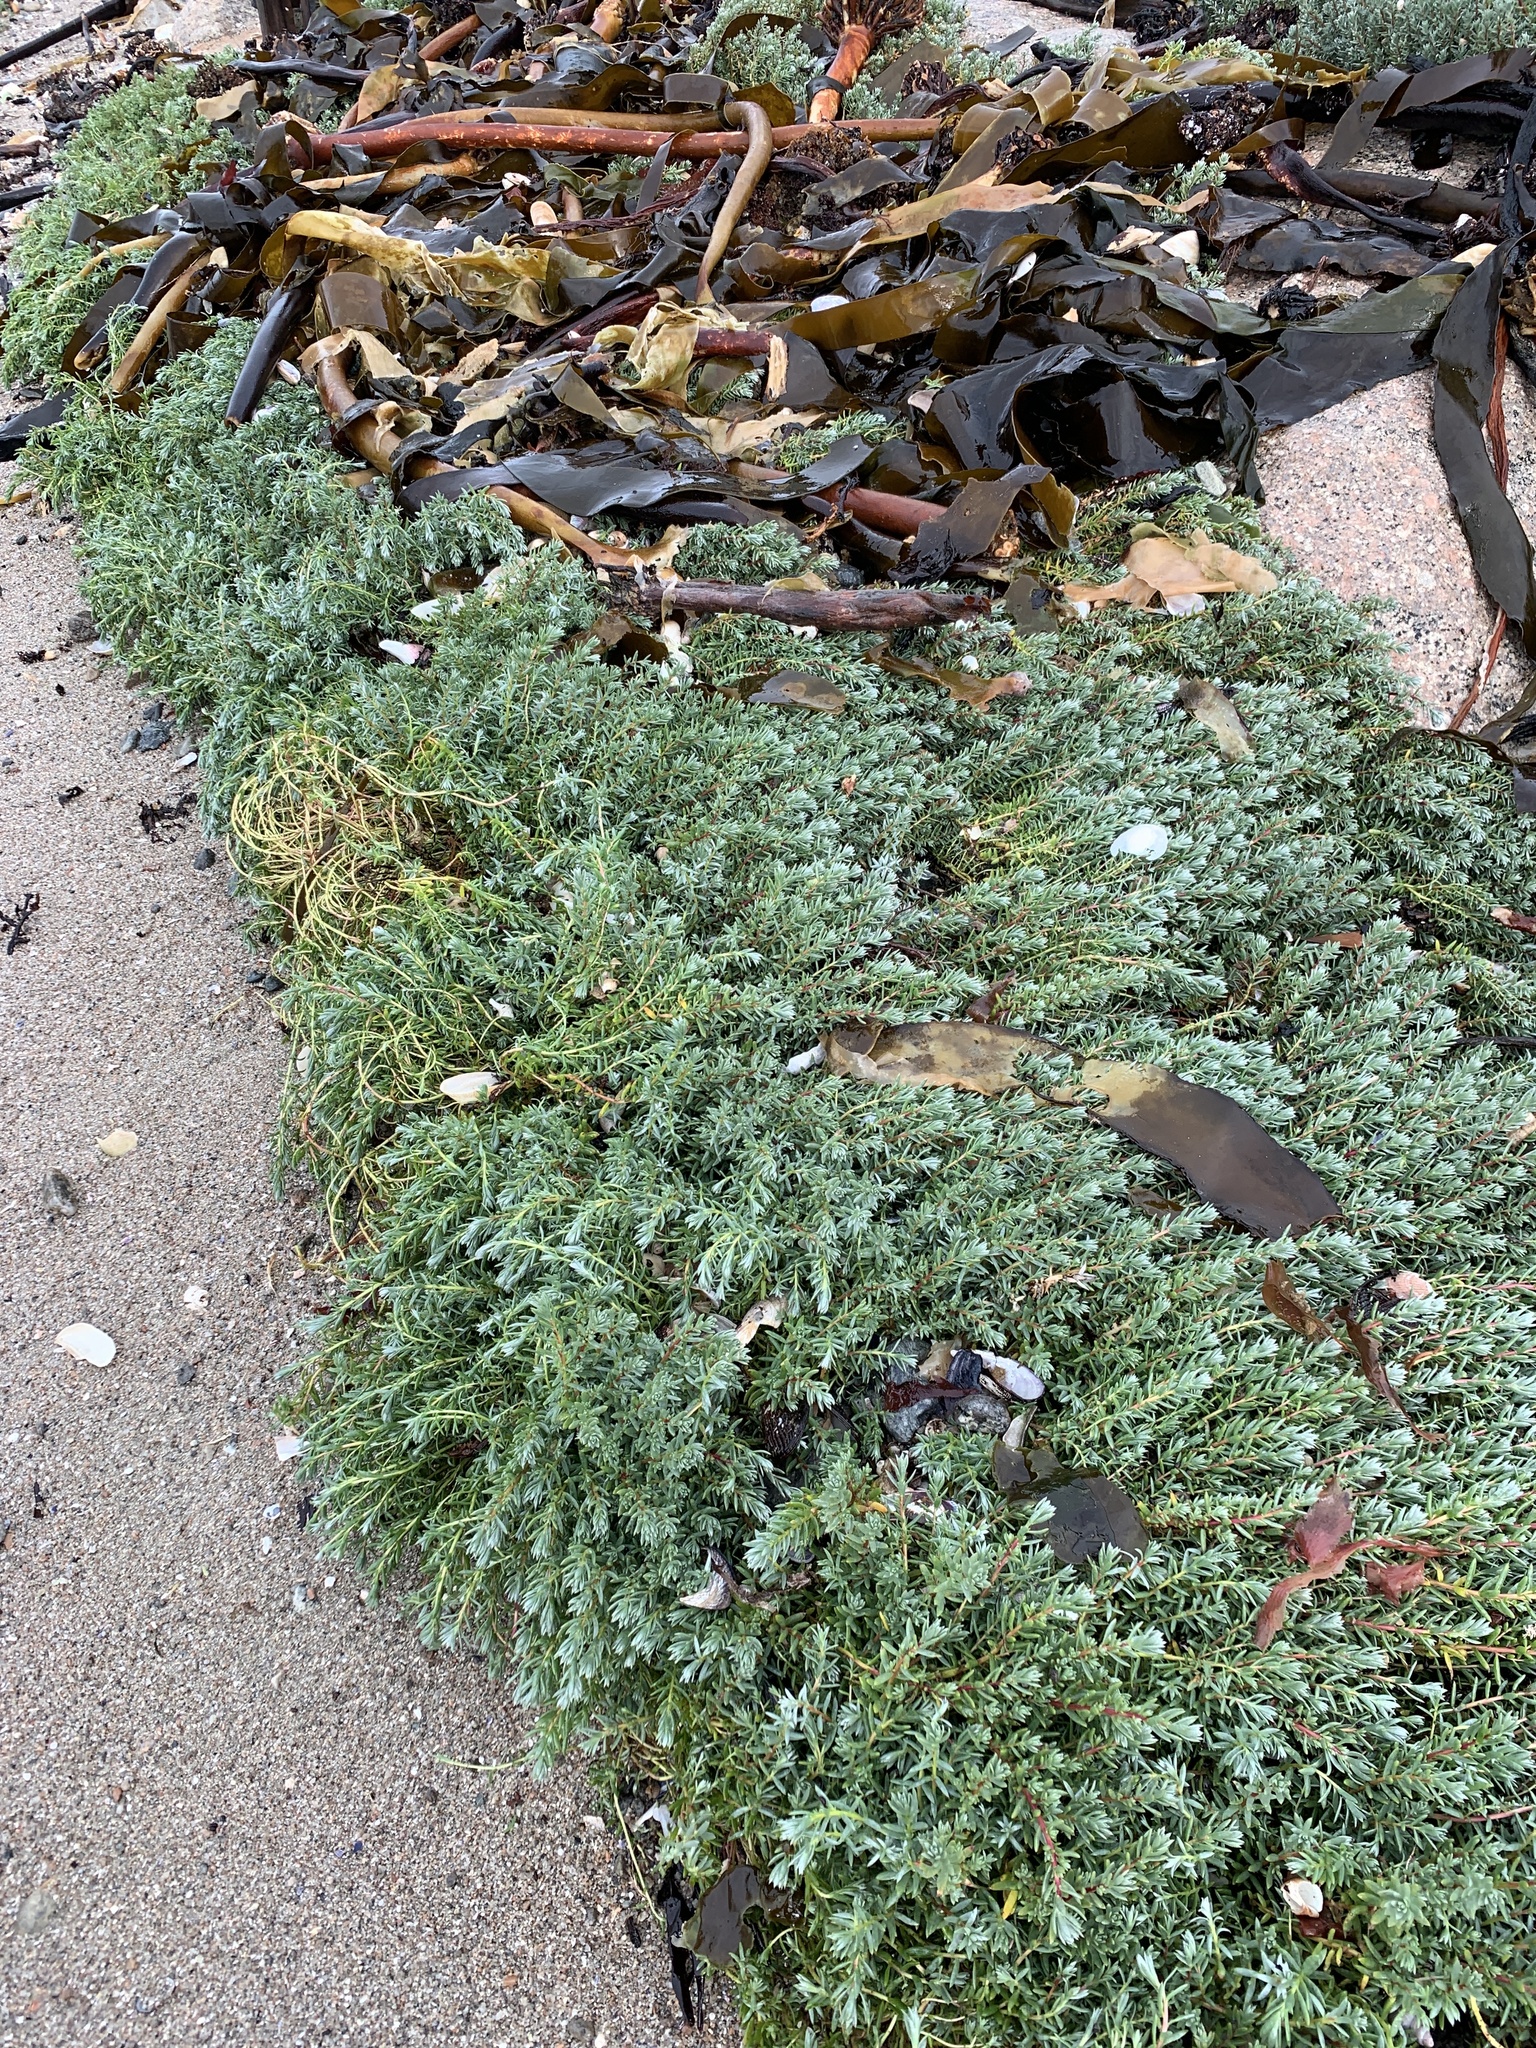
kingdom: Plantae
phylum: Tracheophyta
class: Magnoliopsida
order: Caryophyllales
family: Amaranthaceae
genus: Chenolea
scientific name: Chenolea diffusa
